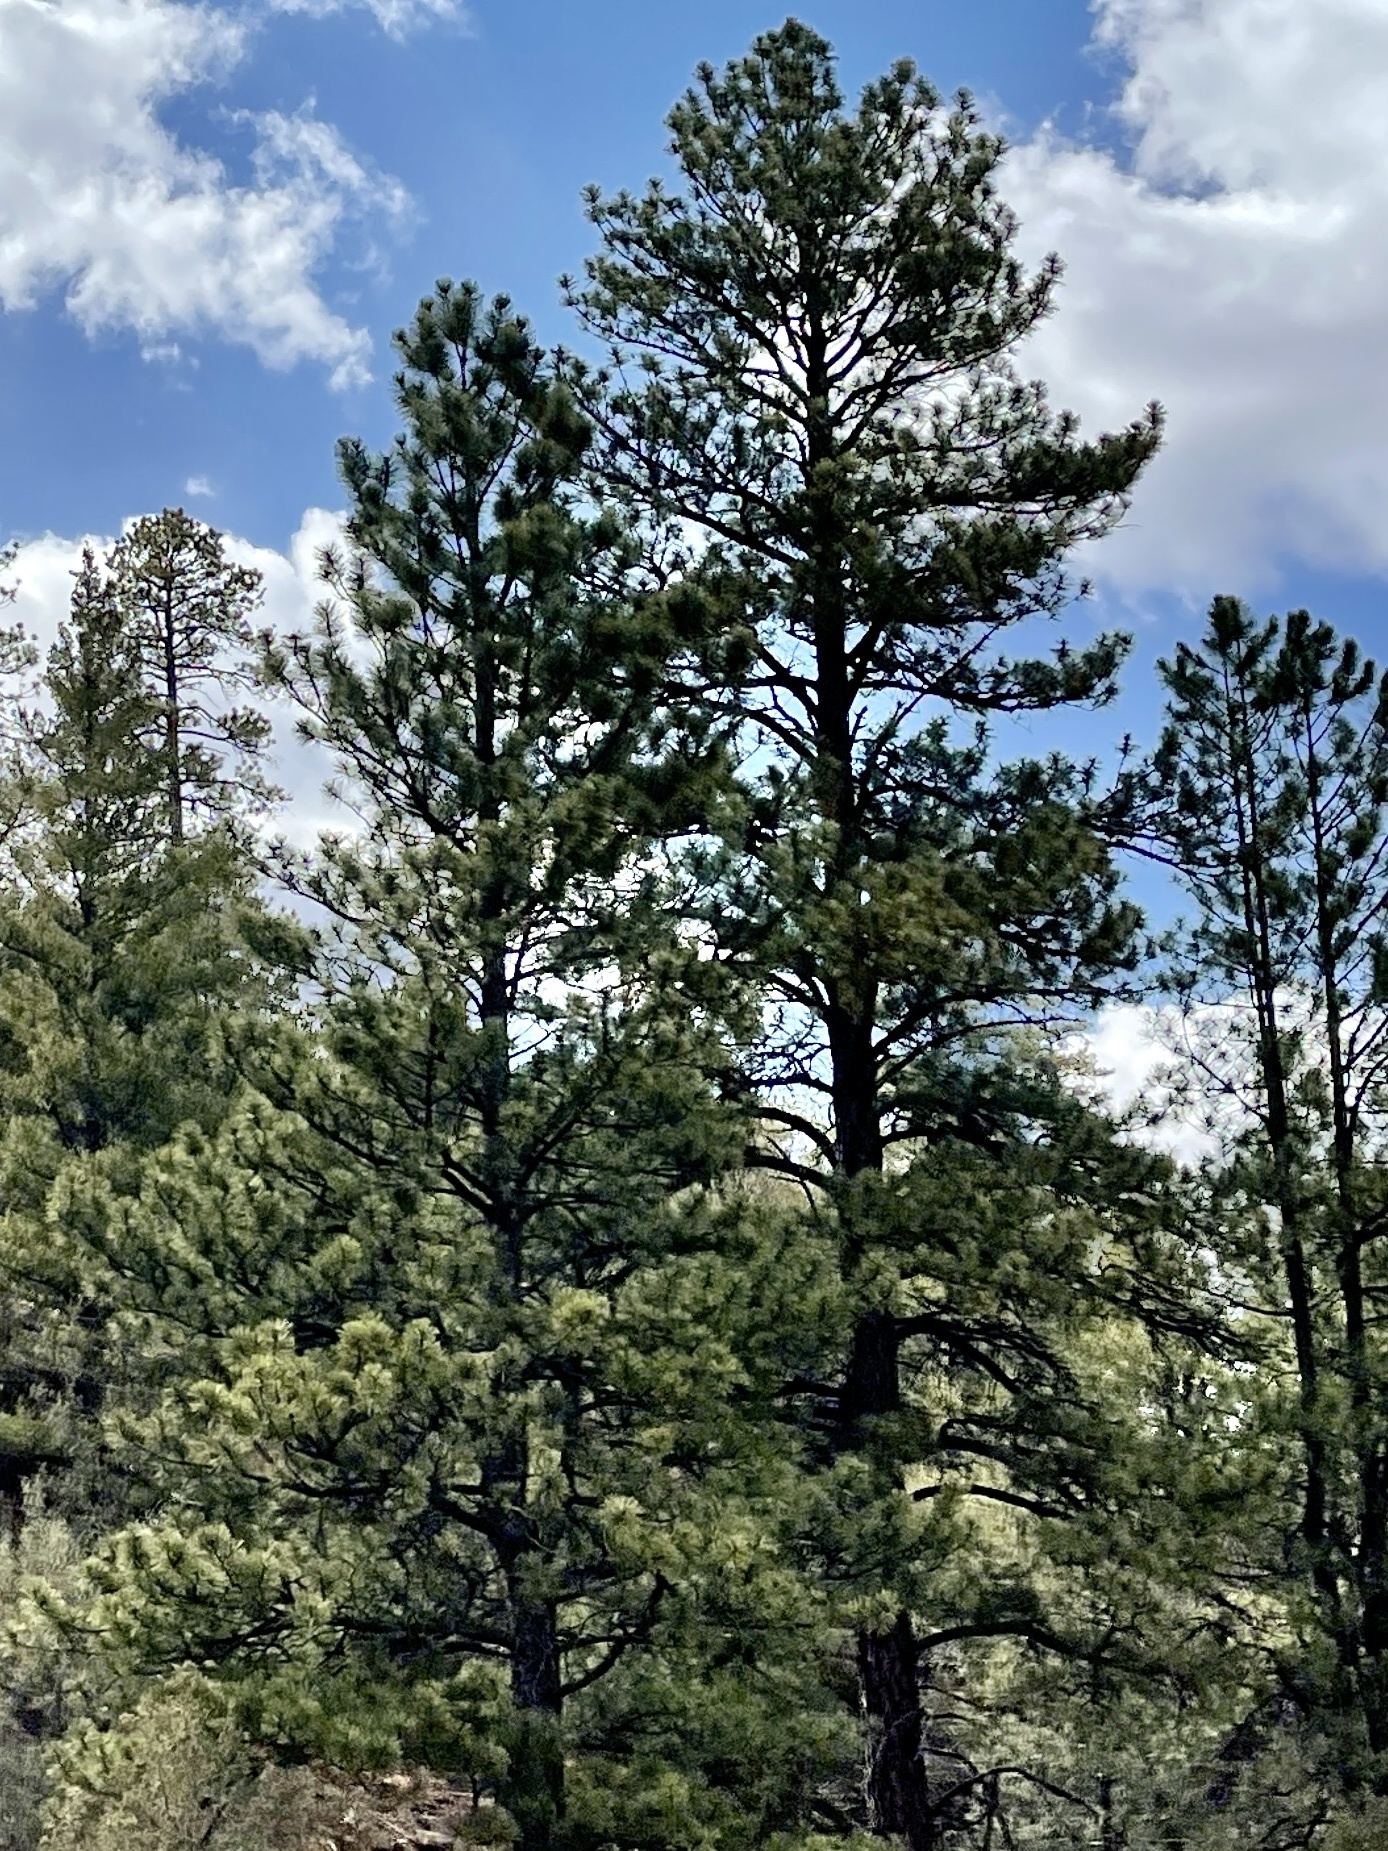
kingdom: Plantae
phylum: Tracheophyta
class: Pinopsida
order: Pinales
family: Pinaceae
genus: Pinus
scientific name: Pinus ponderosa
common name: Western yellow-pine
